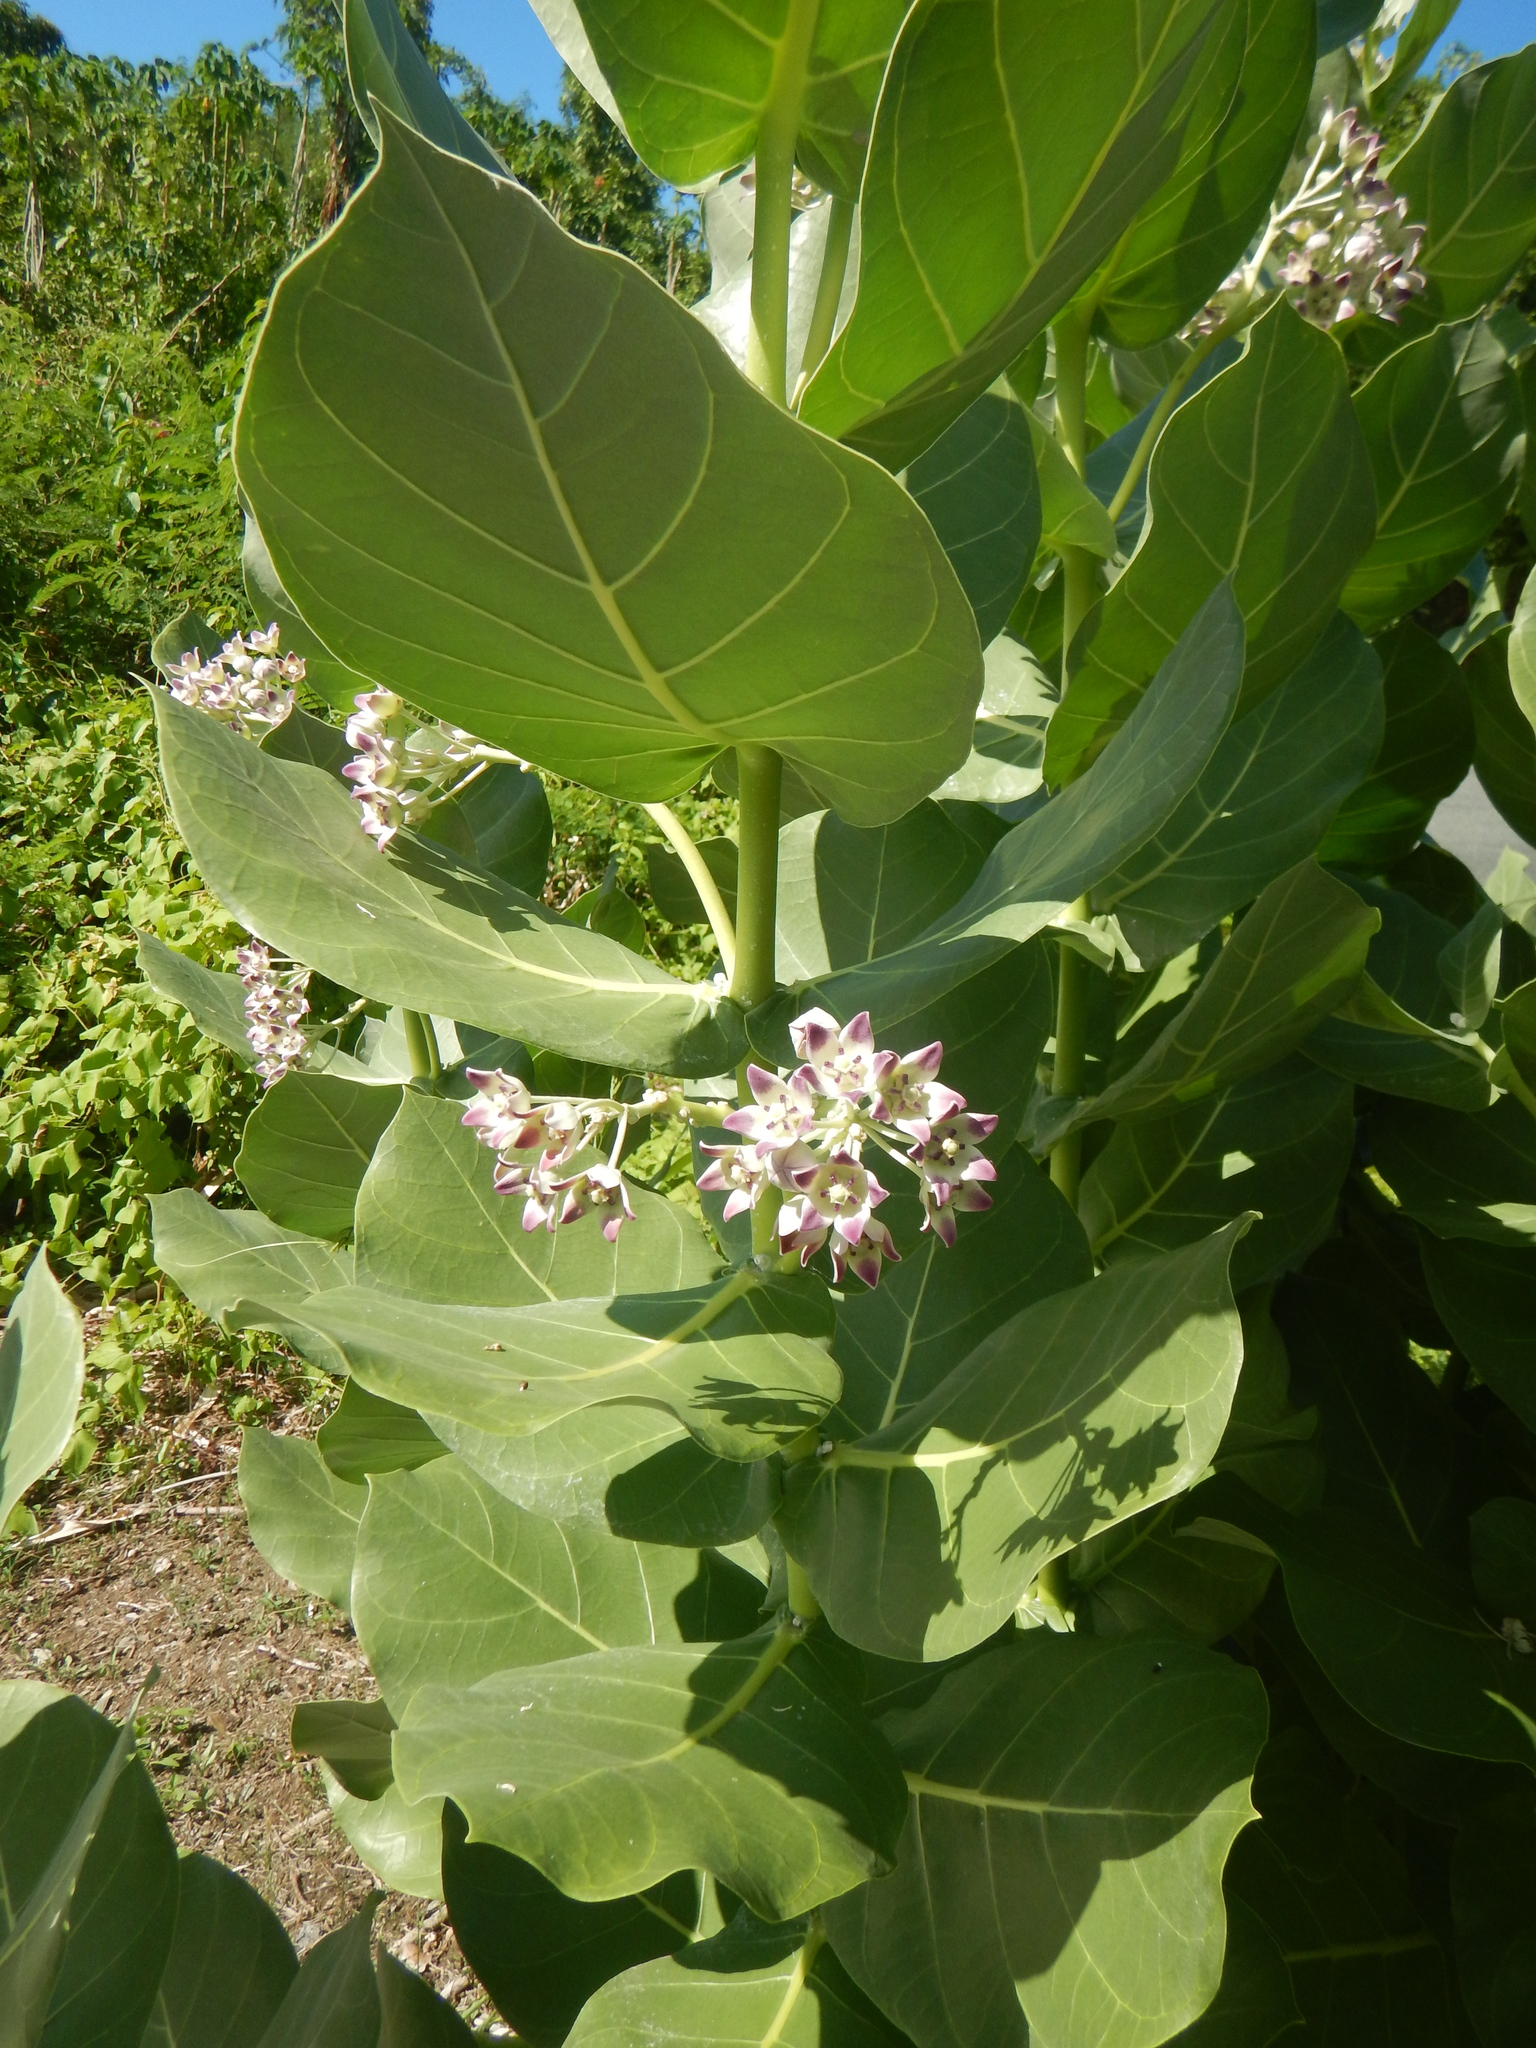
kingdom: Plantae
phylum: Tracheophyta
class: Magnoliopsida
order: Gentianales
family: Apocynaceae
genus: Calotropis
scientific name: Calotropis procera
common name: Roostertree
